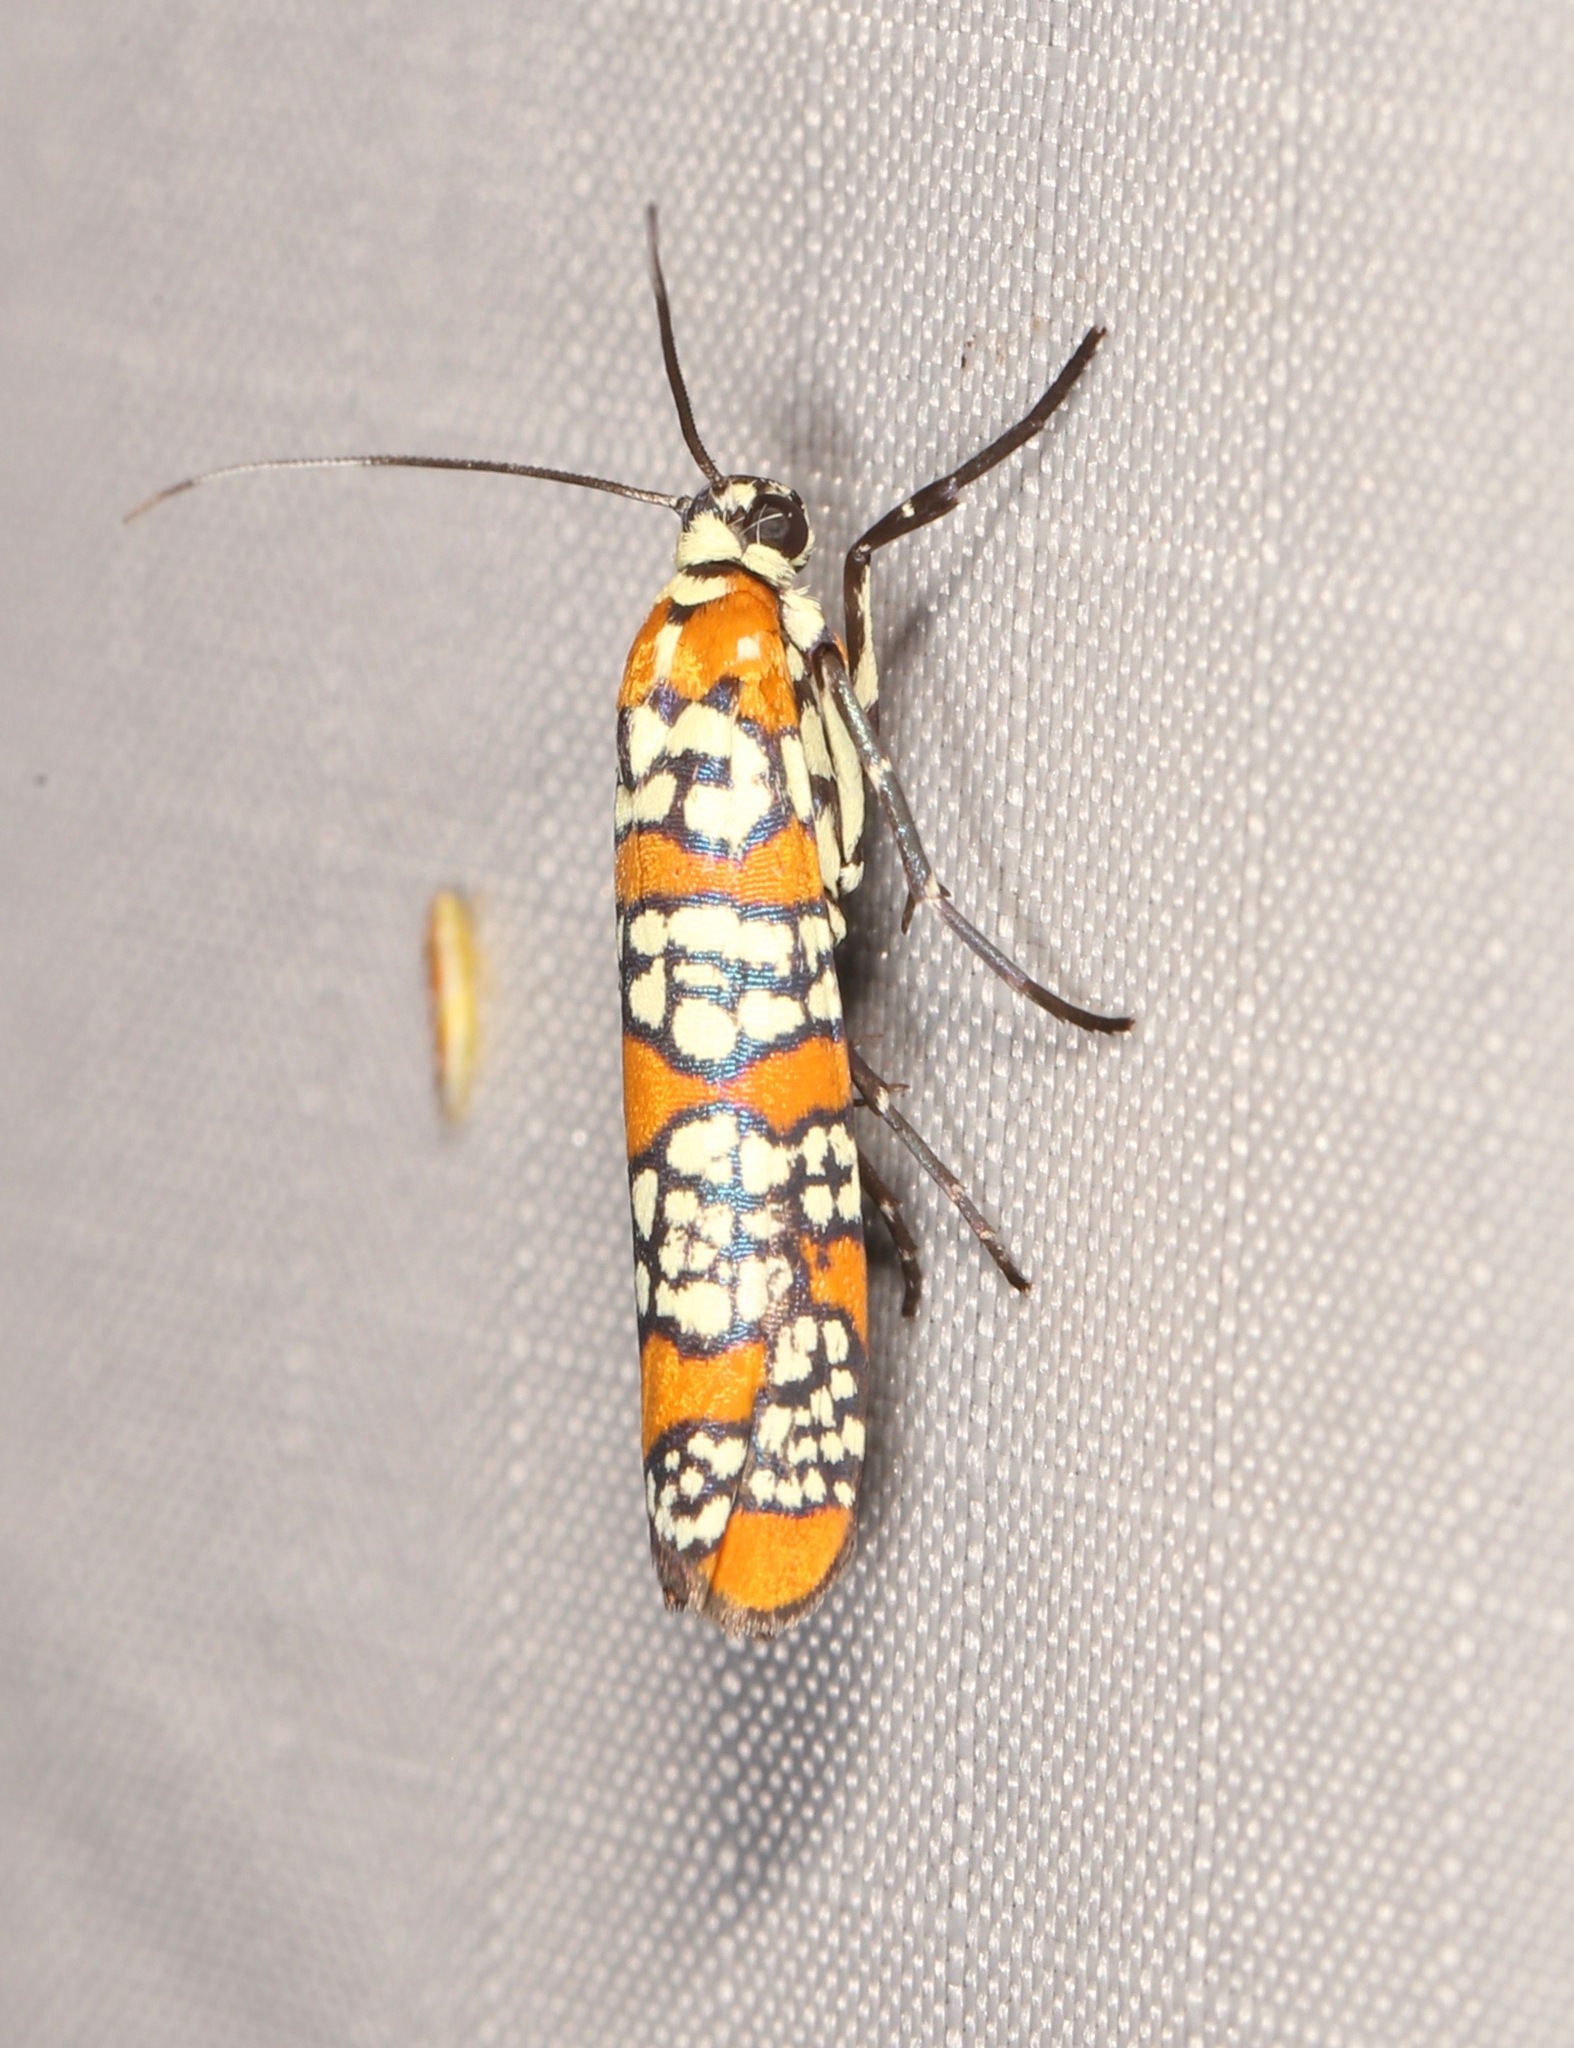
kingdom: Animalia
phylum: Arthropoda
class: Insecta
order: Lepidoptera
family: Attevidae
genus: Atteva
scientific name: Atteva punctella
